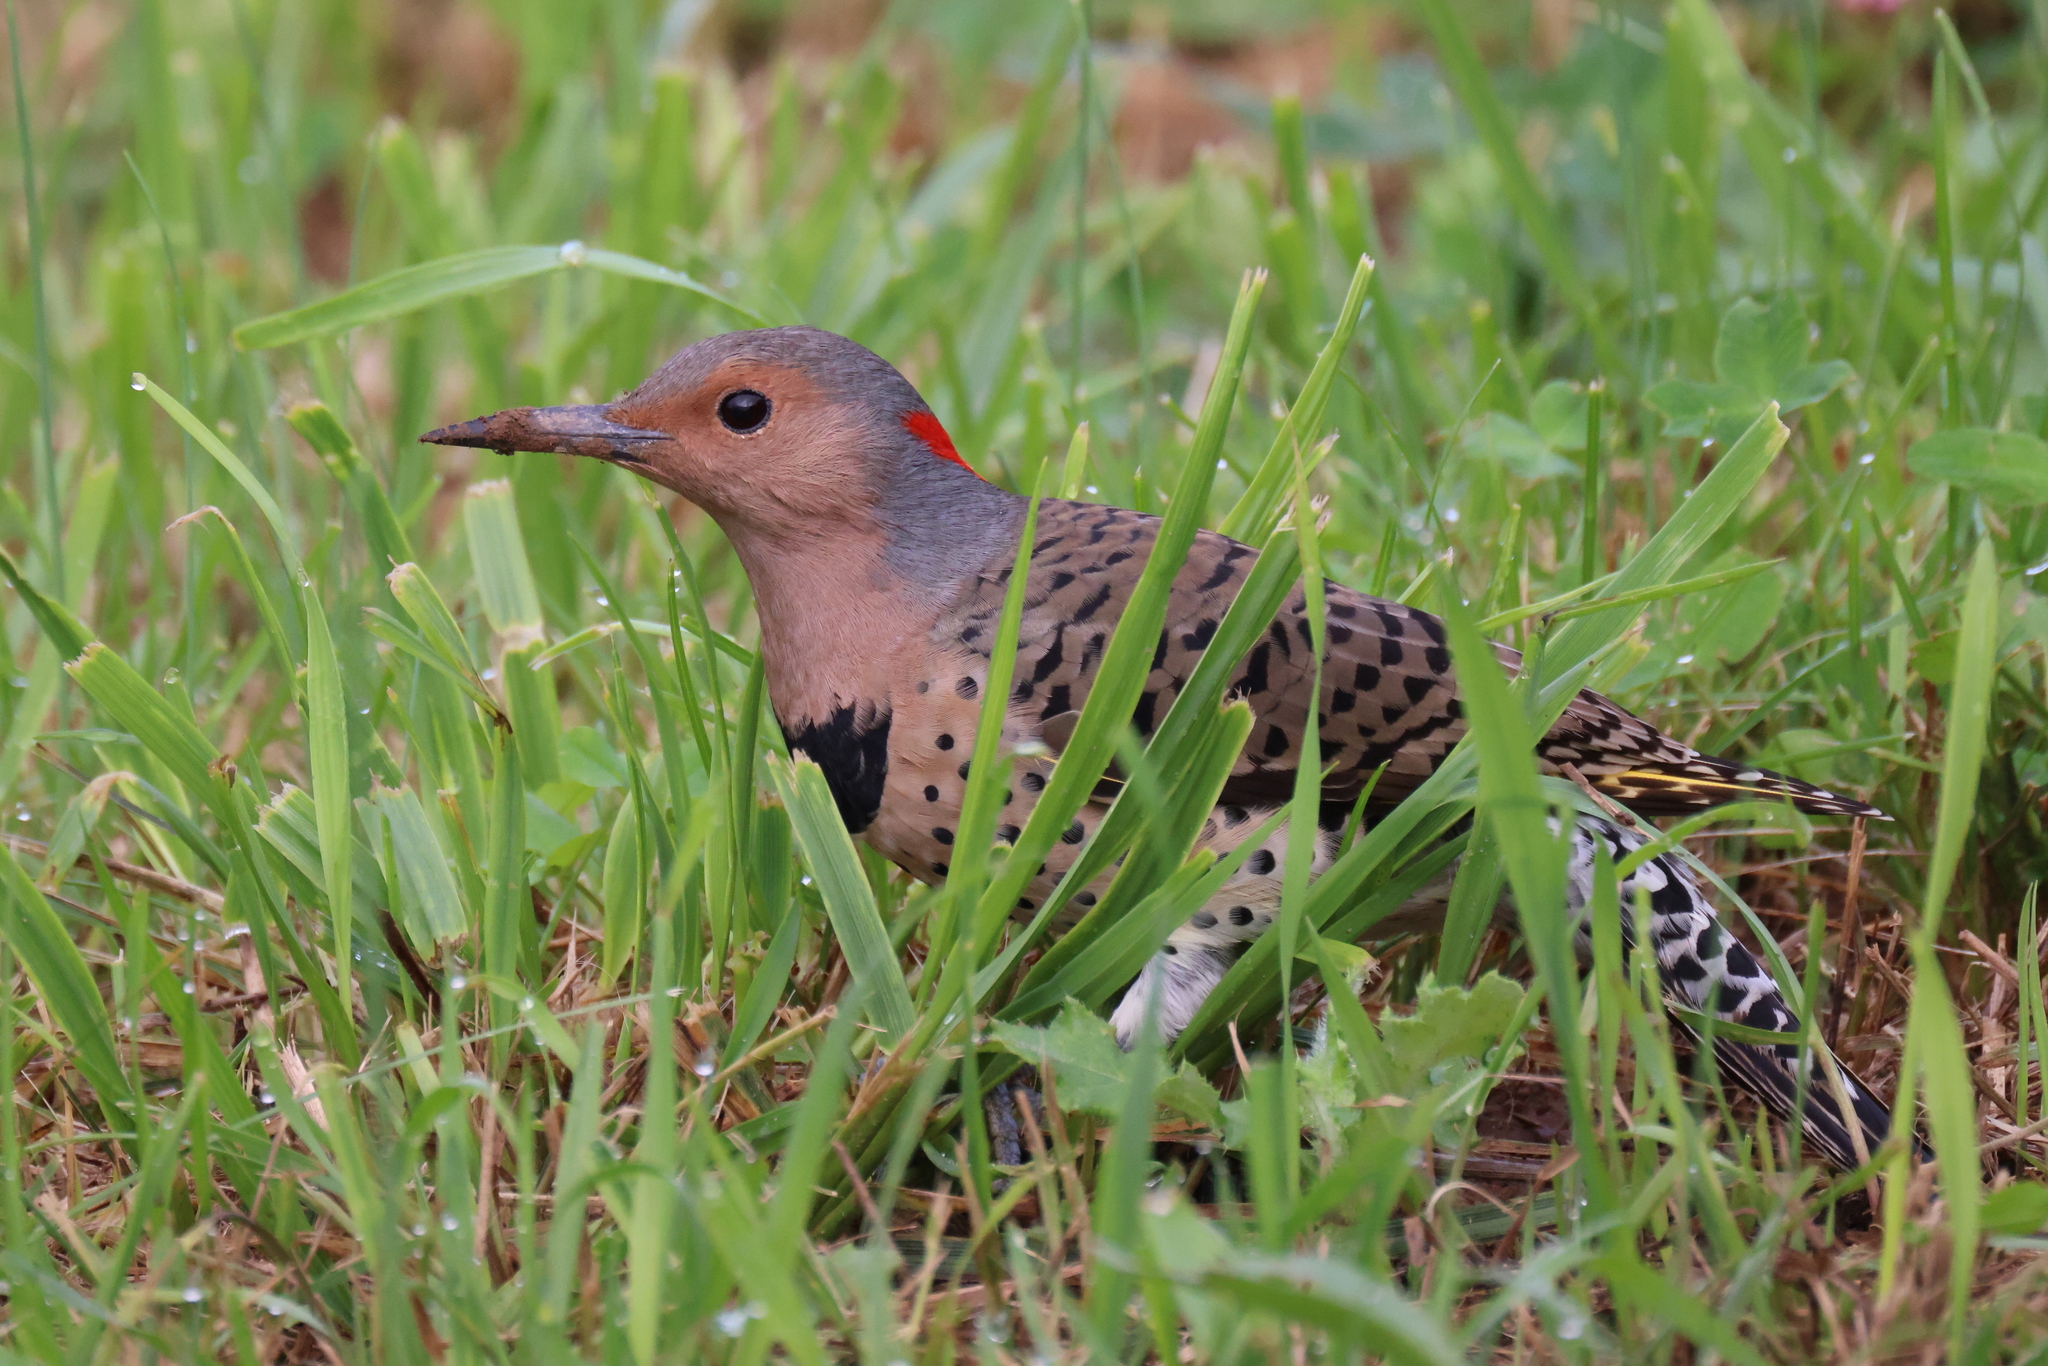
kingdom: Animalia
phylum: Chordata
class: Aves
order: Piciformes
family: Picidae
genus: Colaptes
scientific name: Colaptes auratus
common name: Northern flicker
